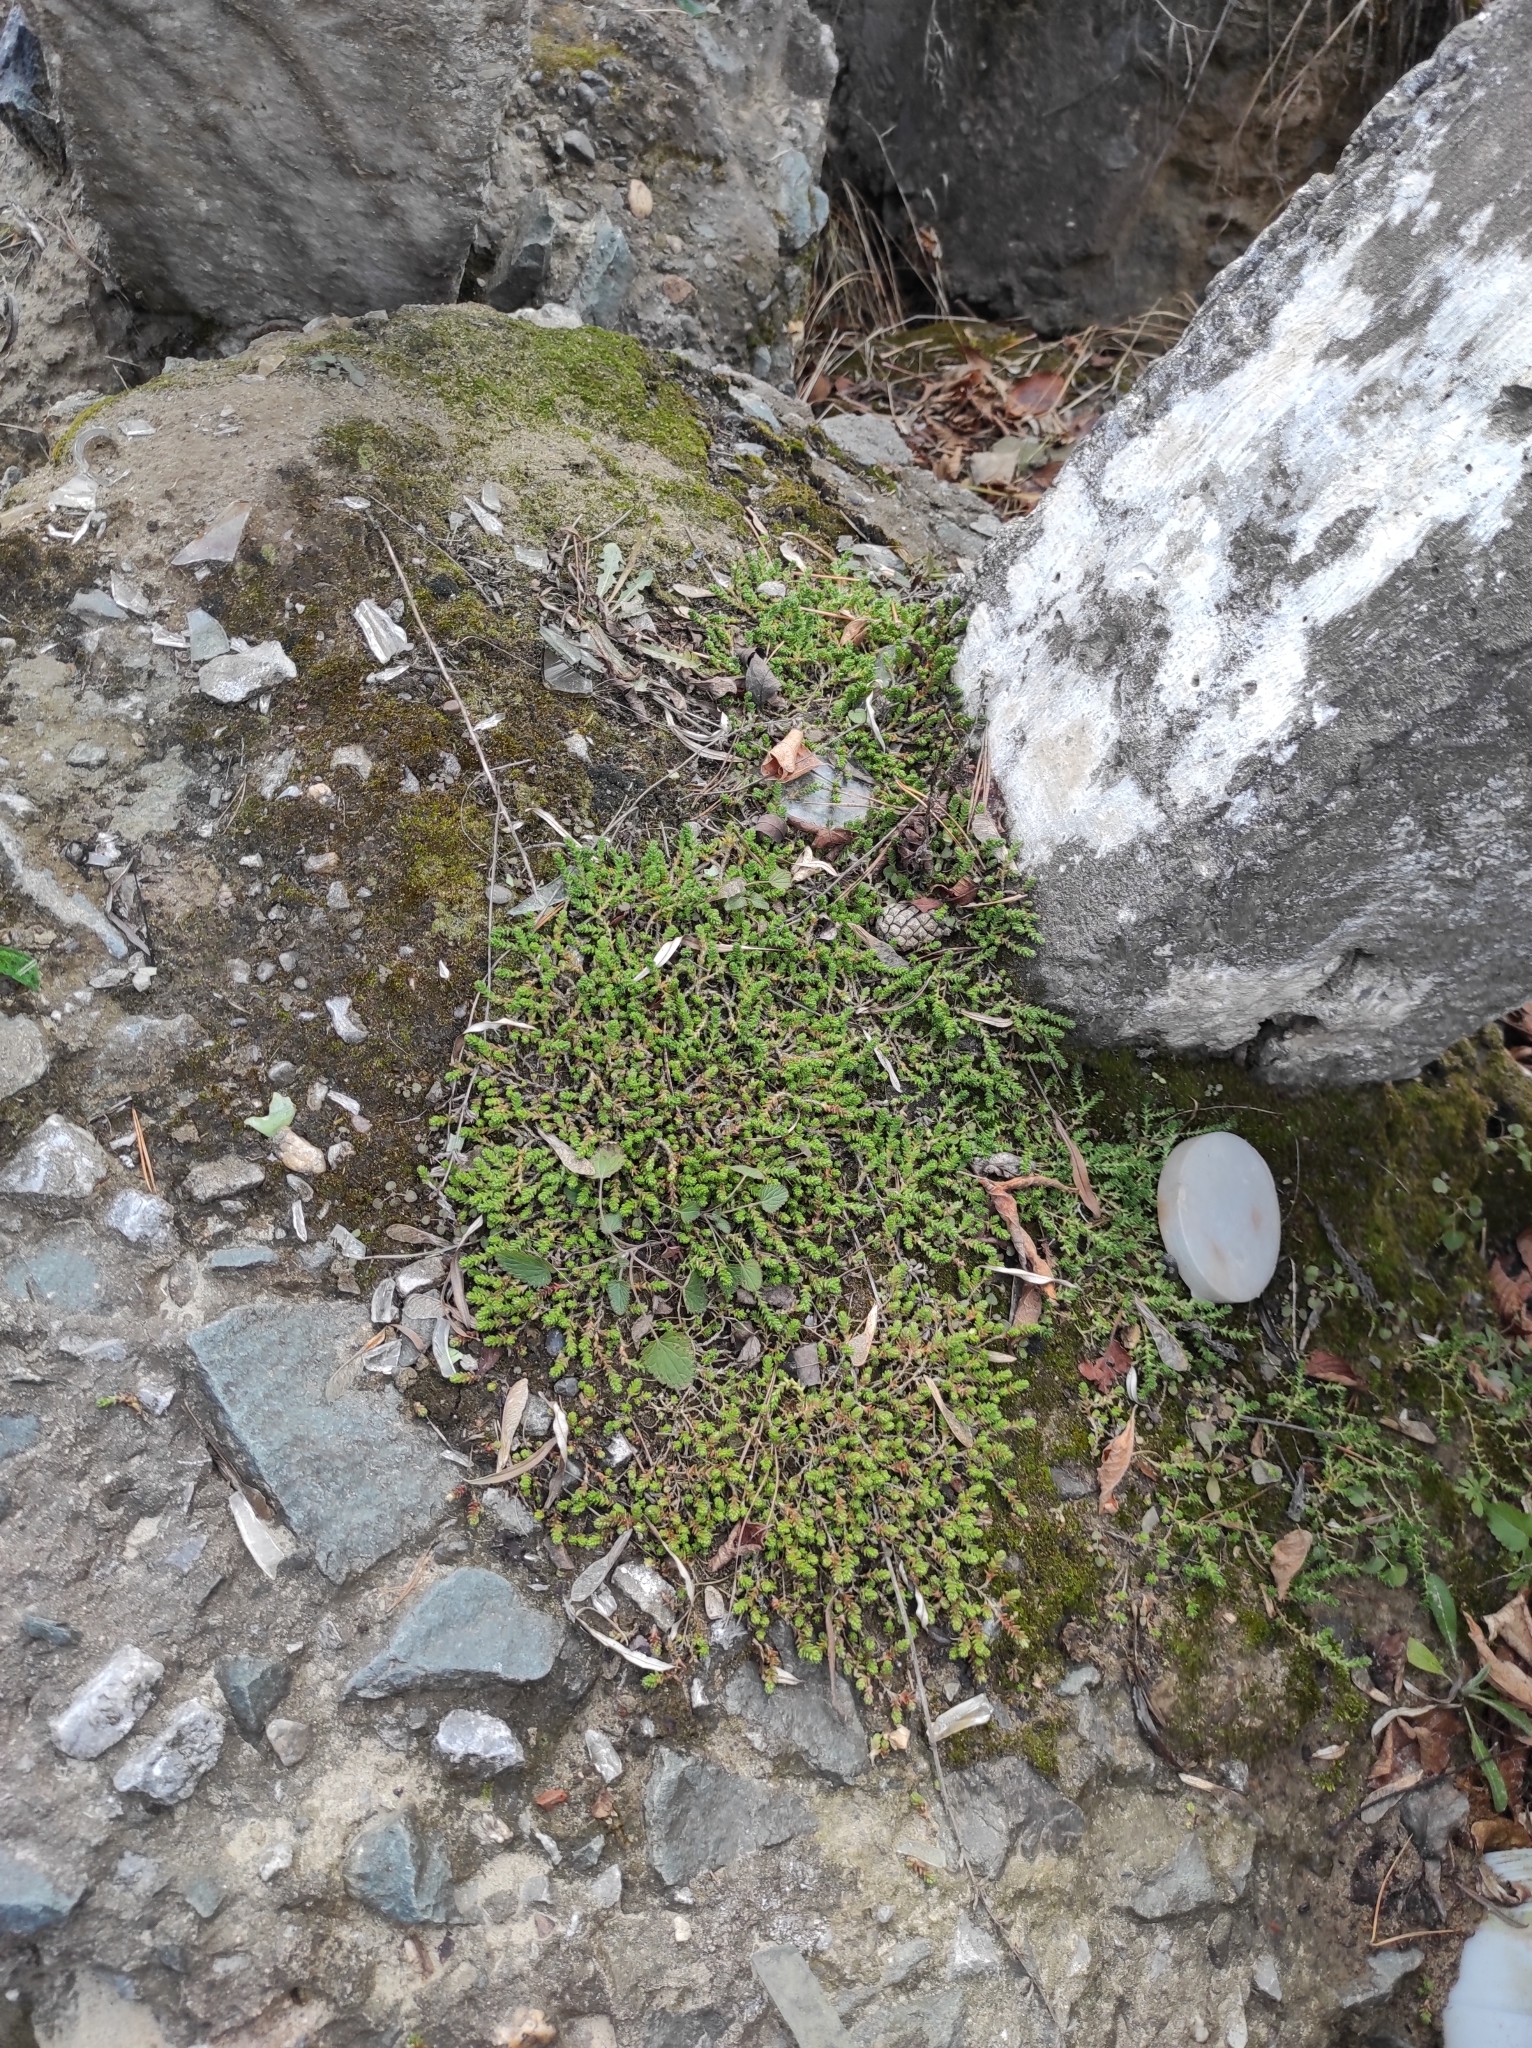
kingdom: Plantae
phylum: Tracheophyta
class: Magnoliopsida
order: Saxifragales
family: Crassulaceae
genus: Sedum
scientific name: Sedum acre
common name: Biting stonecrop
